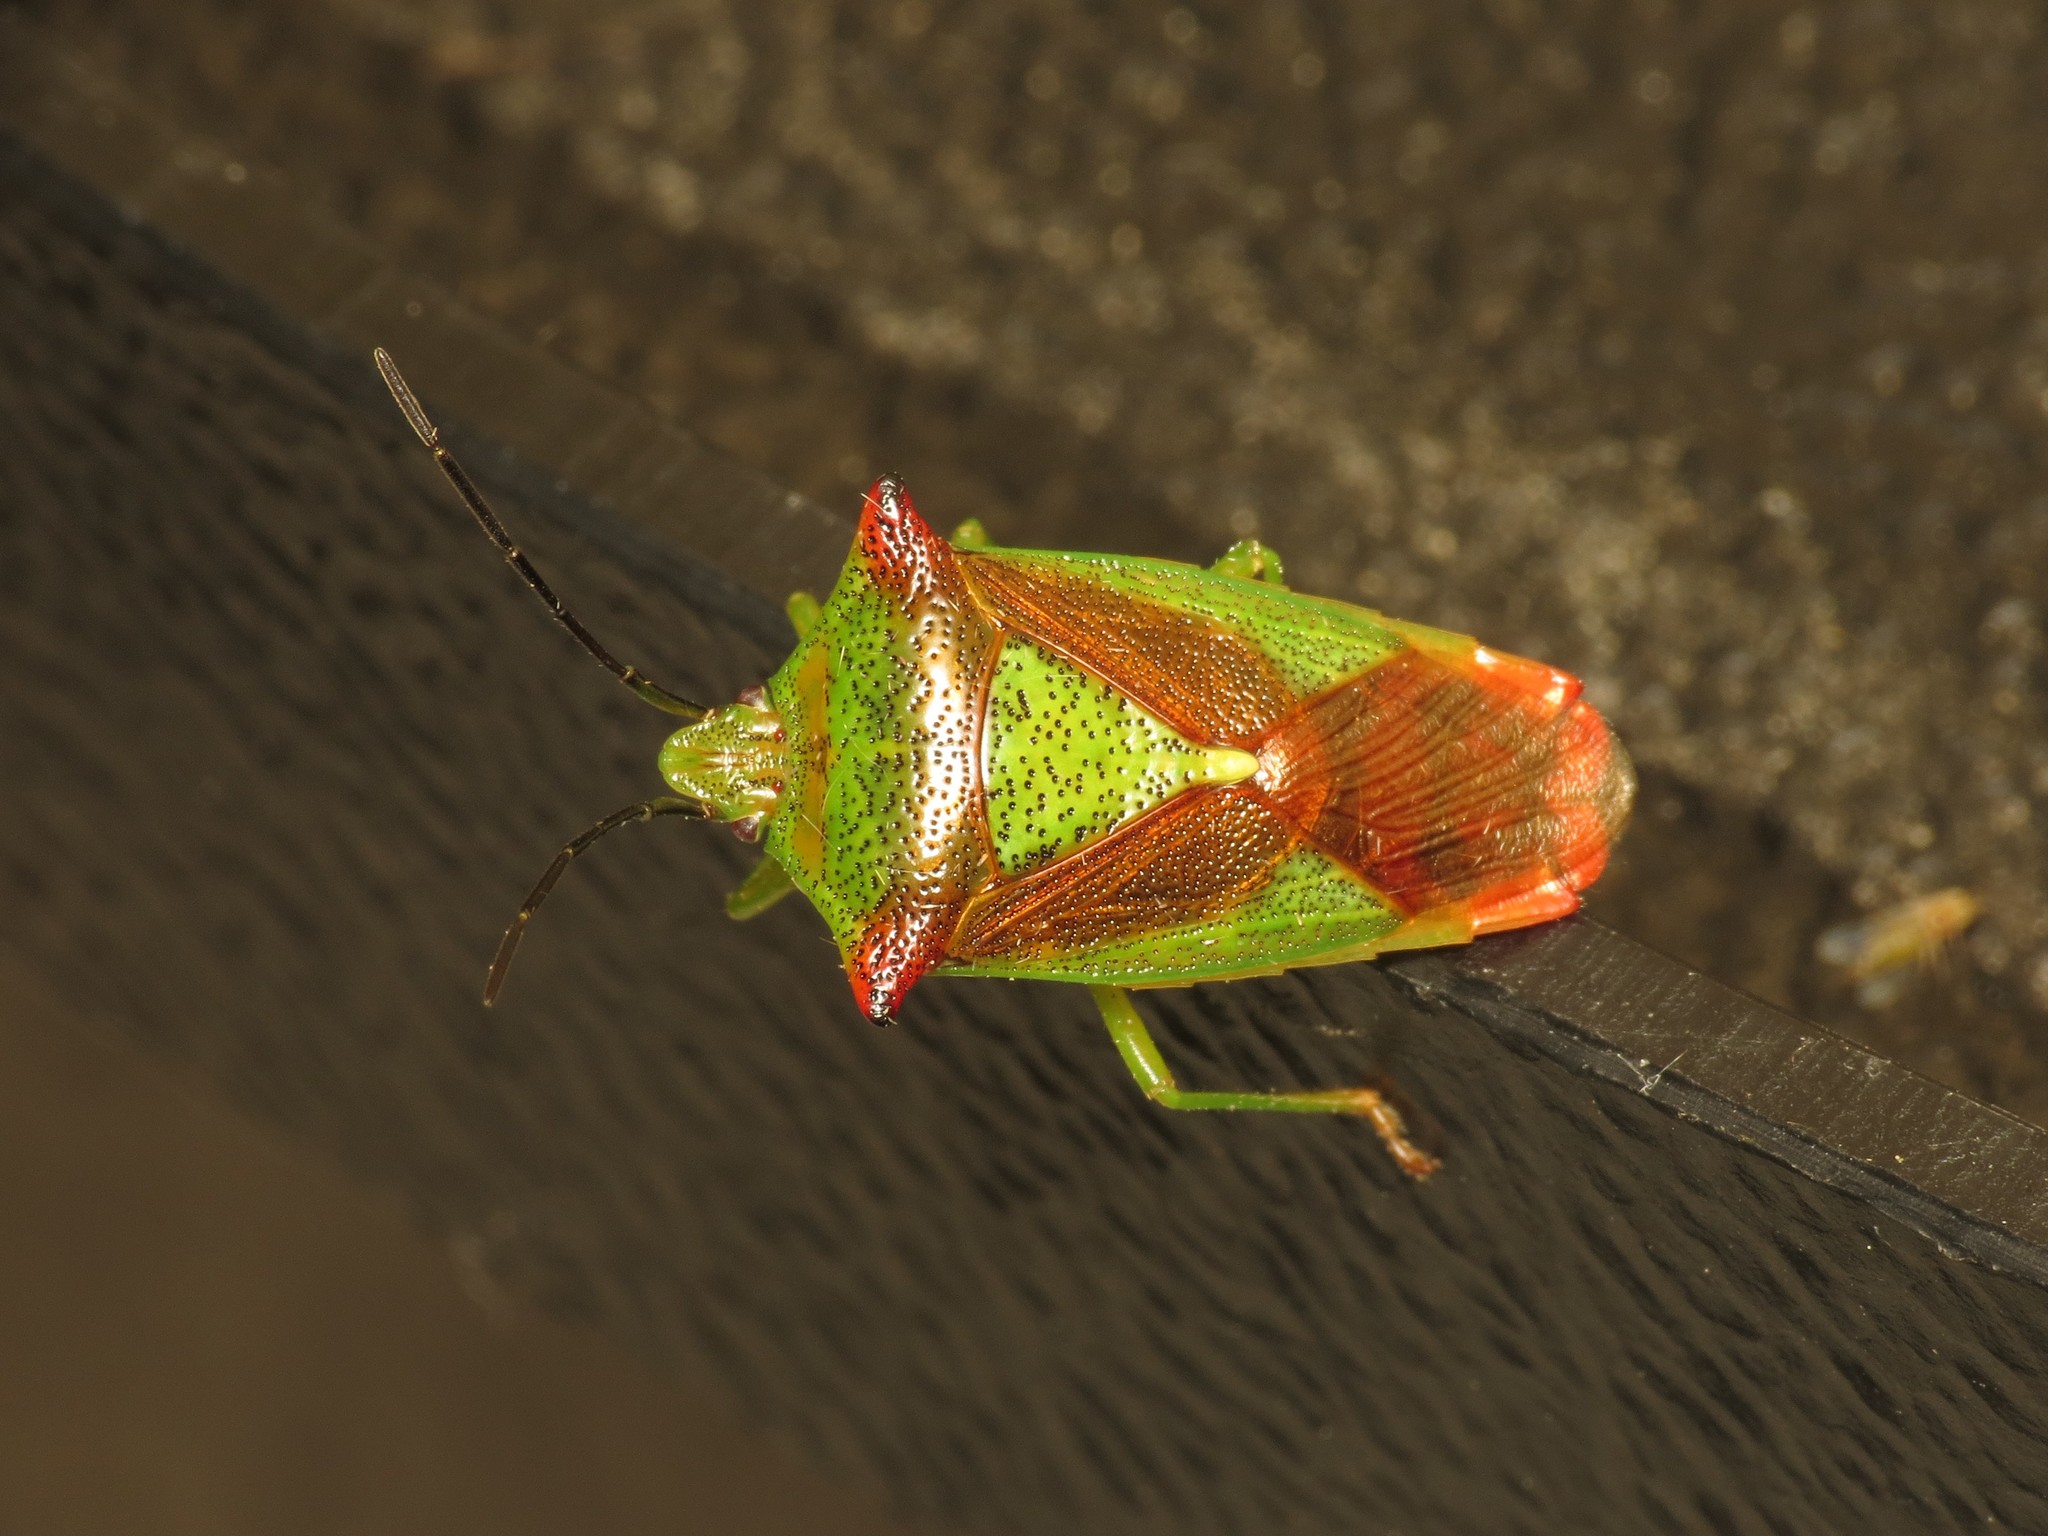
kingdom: Animalia
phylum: Arthropoda
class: Insecta
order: Hemiptera
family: Acanthosomatidae
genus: Acanthosoma
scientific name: Acanthosoma haemorrhoidale
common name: Hawthorn shieldbug
